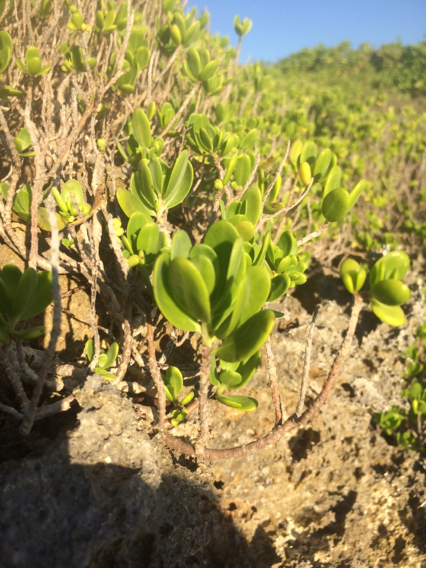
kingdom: Plantae
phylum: Tracheophyta
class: Magnoliopsida
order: Myrtales
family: Lythraceae
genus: Pemphis
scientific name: Pemphis acidula
